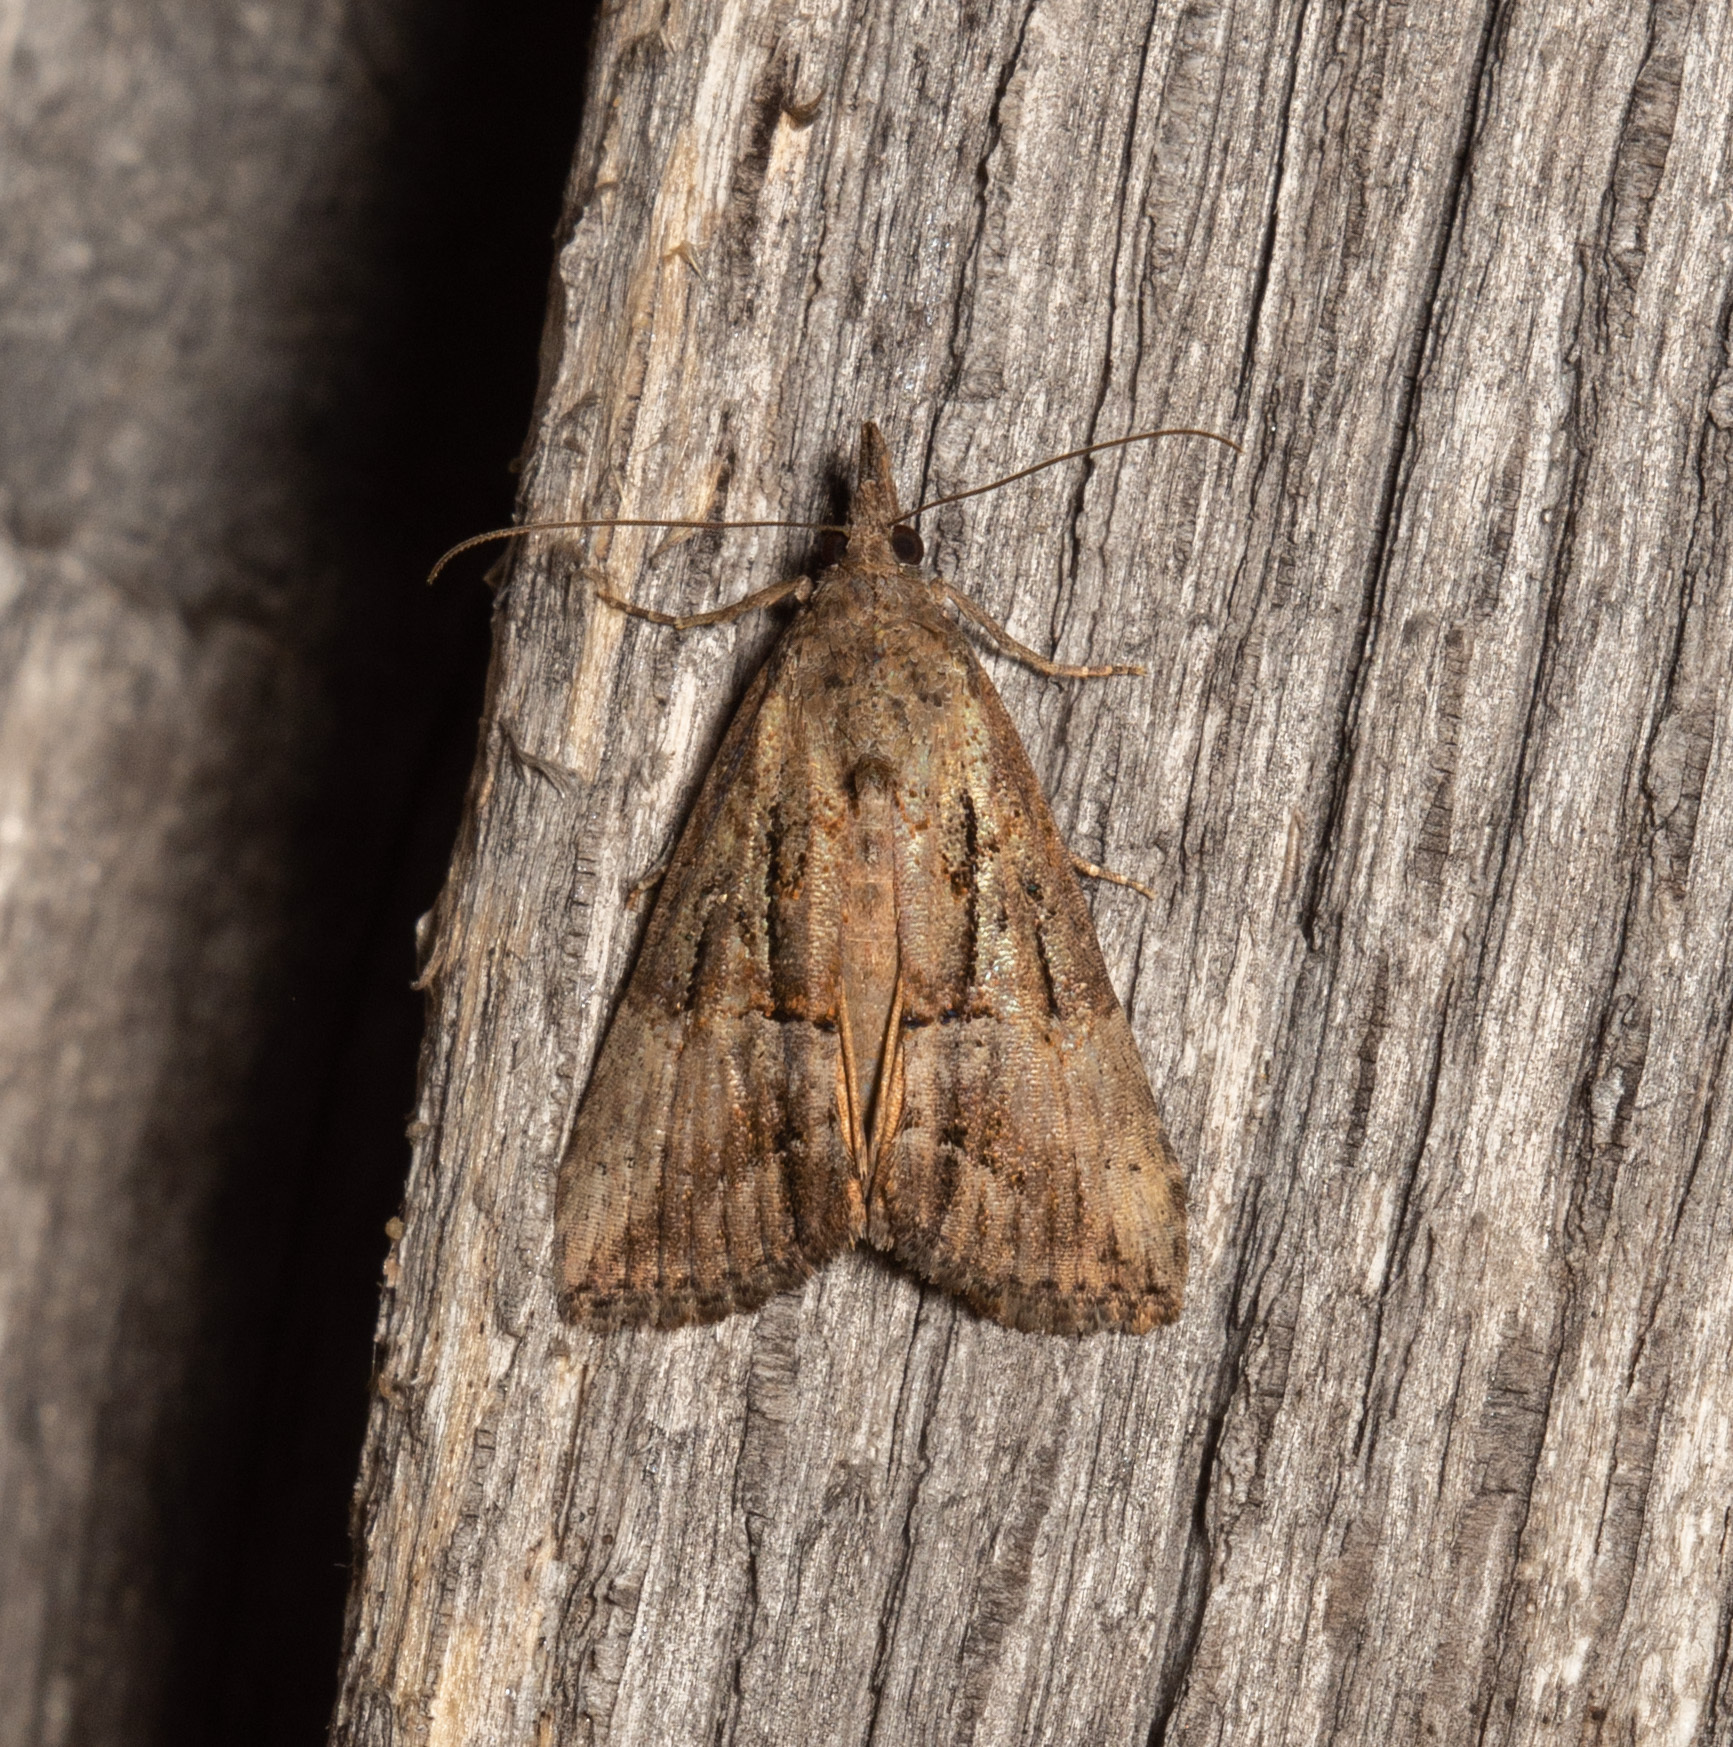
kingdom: Animalia
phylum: Arthropoda
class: Insecta
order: Lepidoptera
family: Erebidae
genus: Hypena
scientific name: Hypena scabra
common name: Green cloverworm
